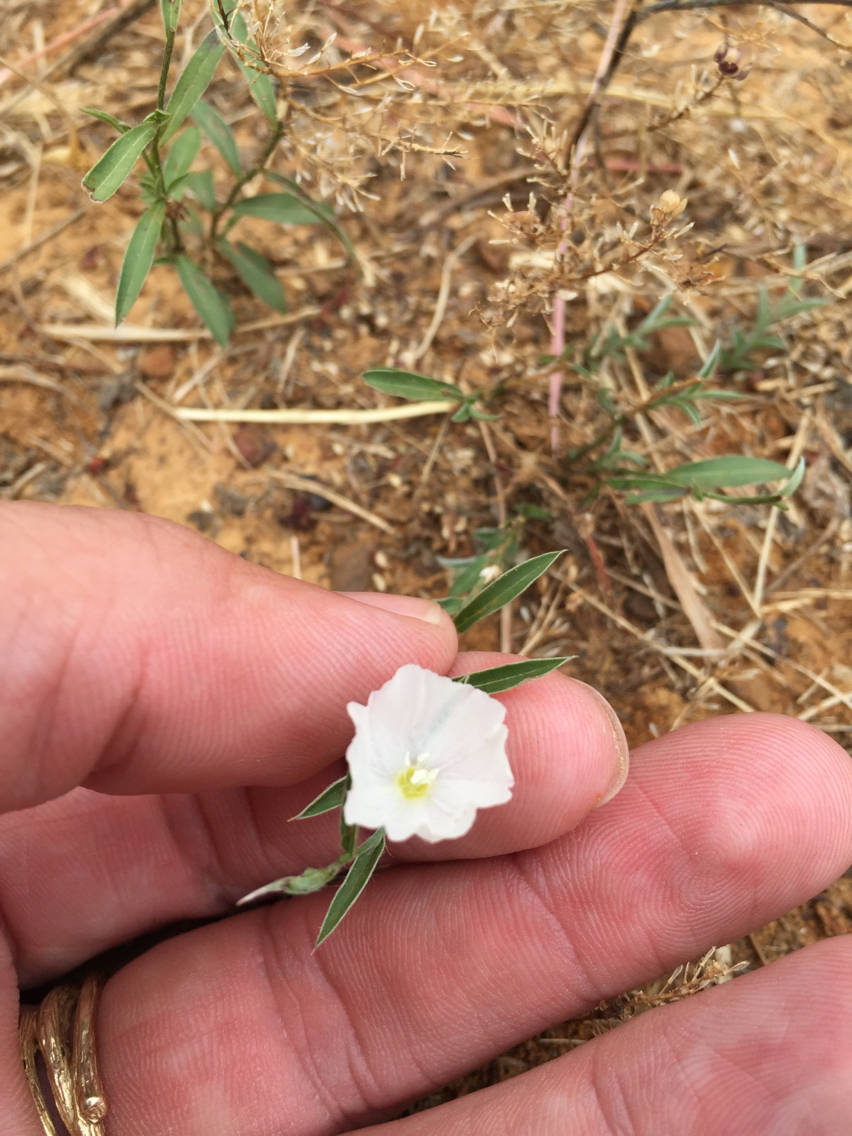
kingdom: Plantae
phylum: Tracheophyta
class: Magnoliopsida
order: Solanales
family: Convolvulaceae
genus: Evolvulus
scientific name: Evolvulus sericeus
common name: Blue dots
